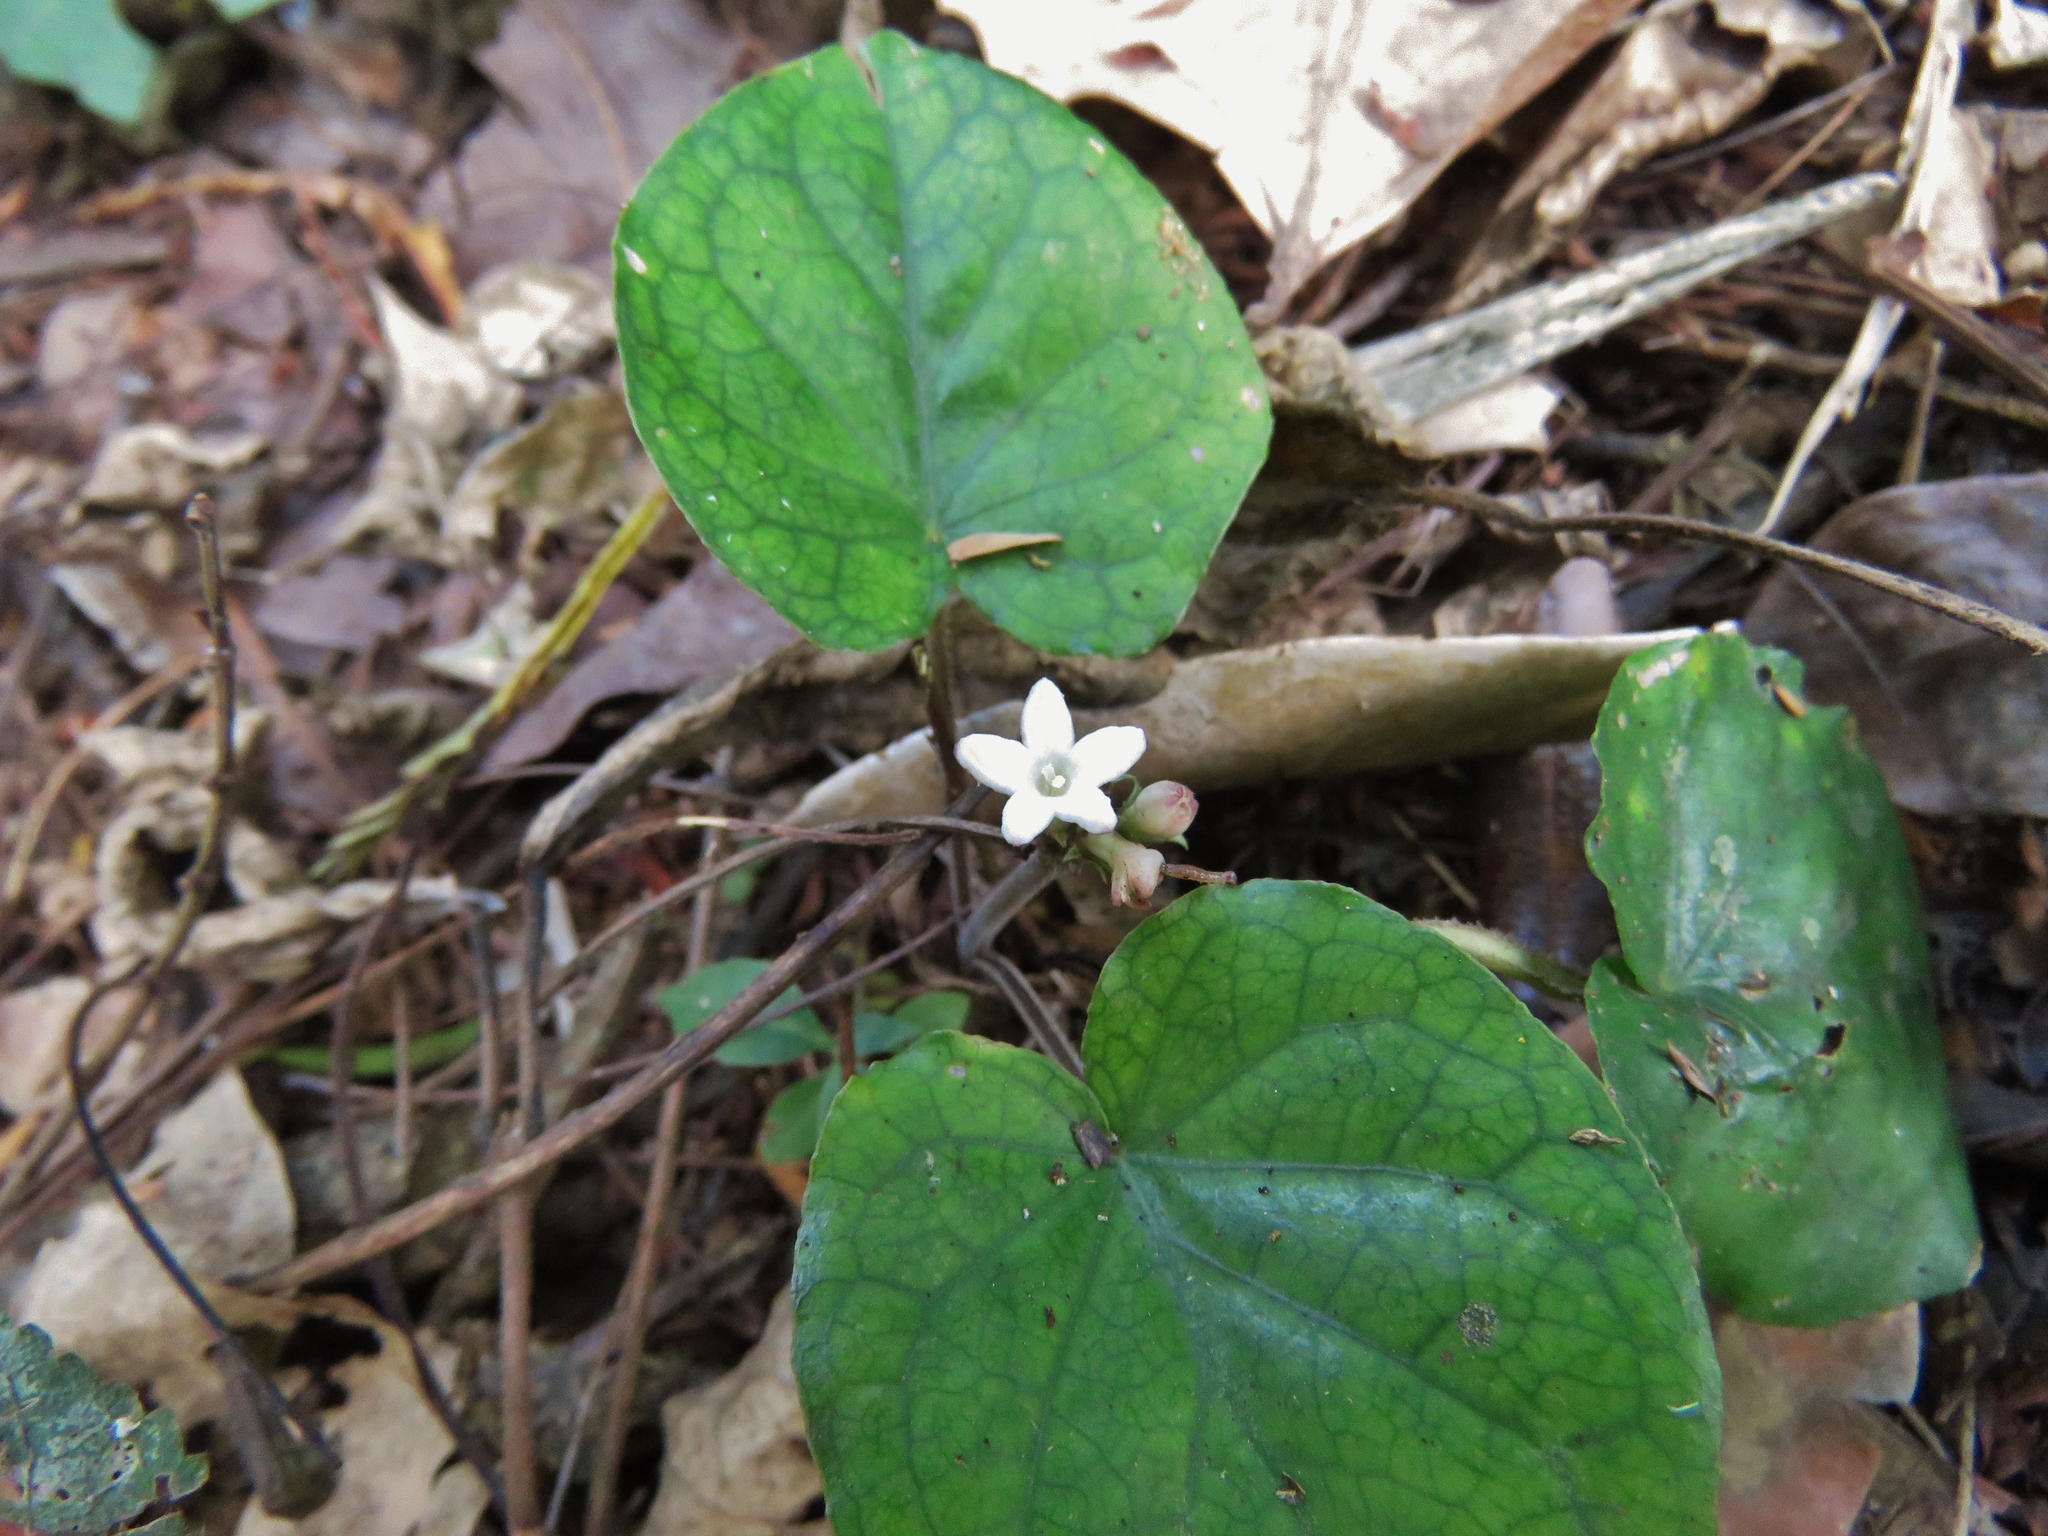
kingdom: Plantae
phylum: Tracheophyta
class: Magnoliopsida
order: Gentianales
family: Rubiaceae
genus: Geophila
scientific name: Geophila macropoda
